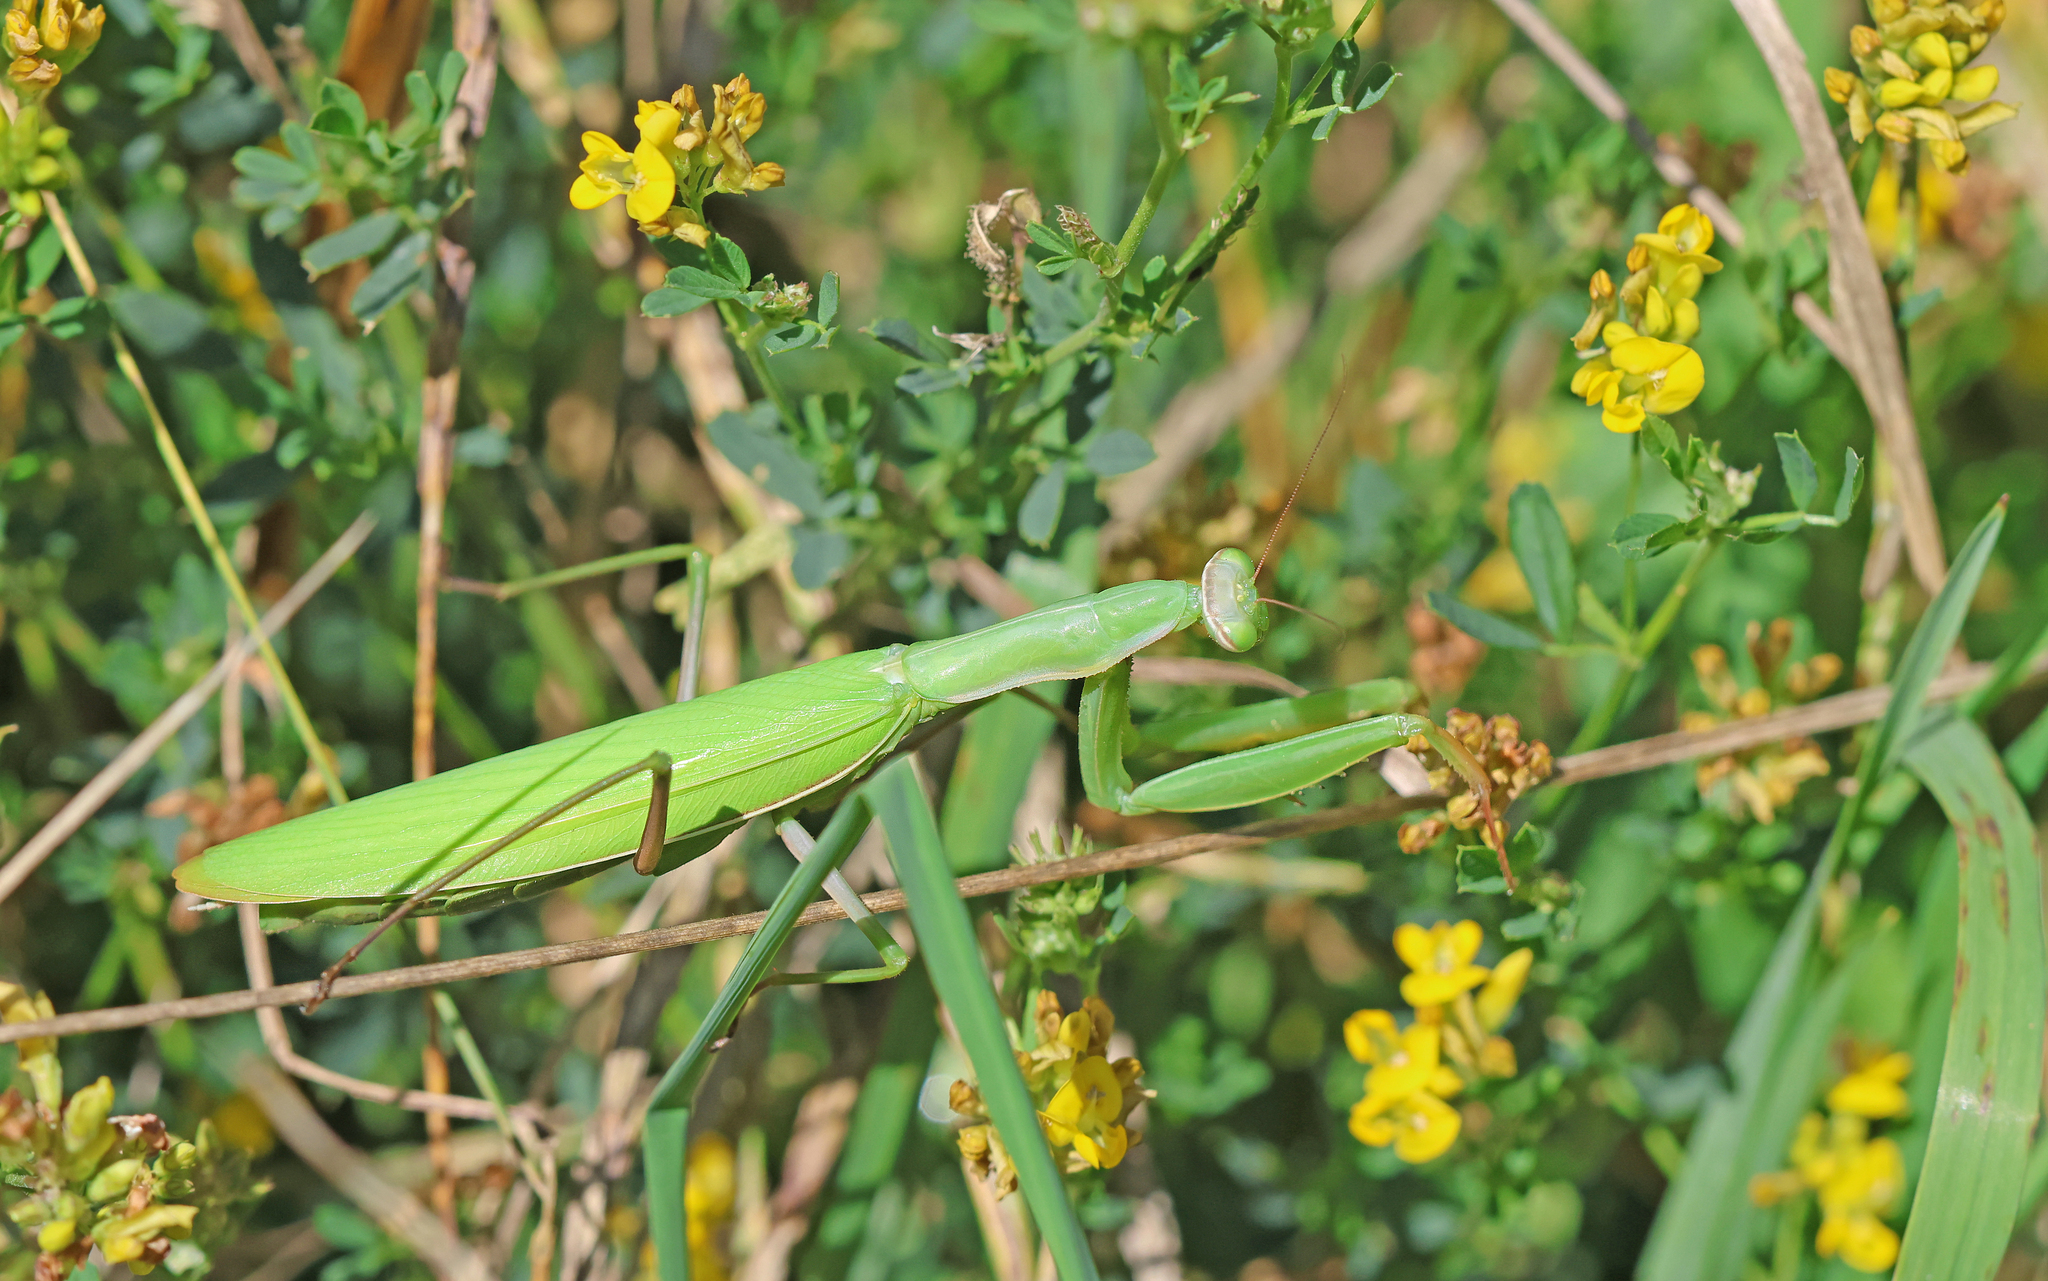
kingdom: Animalia
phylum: Arthropoda
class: Insecta
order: Mantodea
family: Mantidae
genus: Mantis
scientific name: Mantis religiosa
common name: Praying mantis
